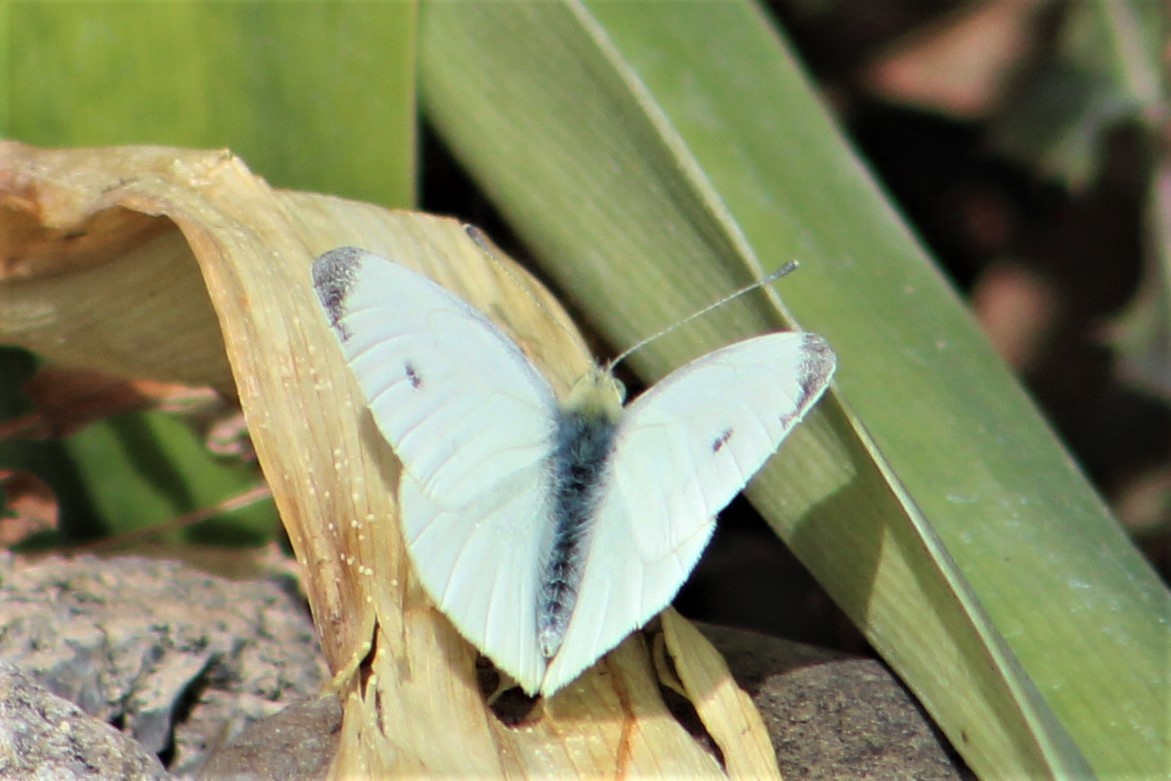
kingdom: Animalia
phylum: Arthropoda
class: Insecta
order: Lepidoptera
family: Pieridae
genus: Pieris
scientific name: Pieris rapae
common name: Small white
